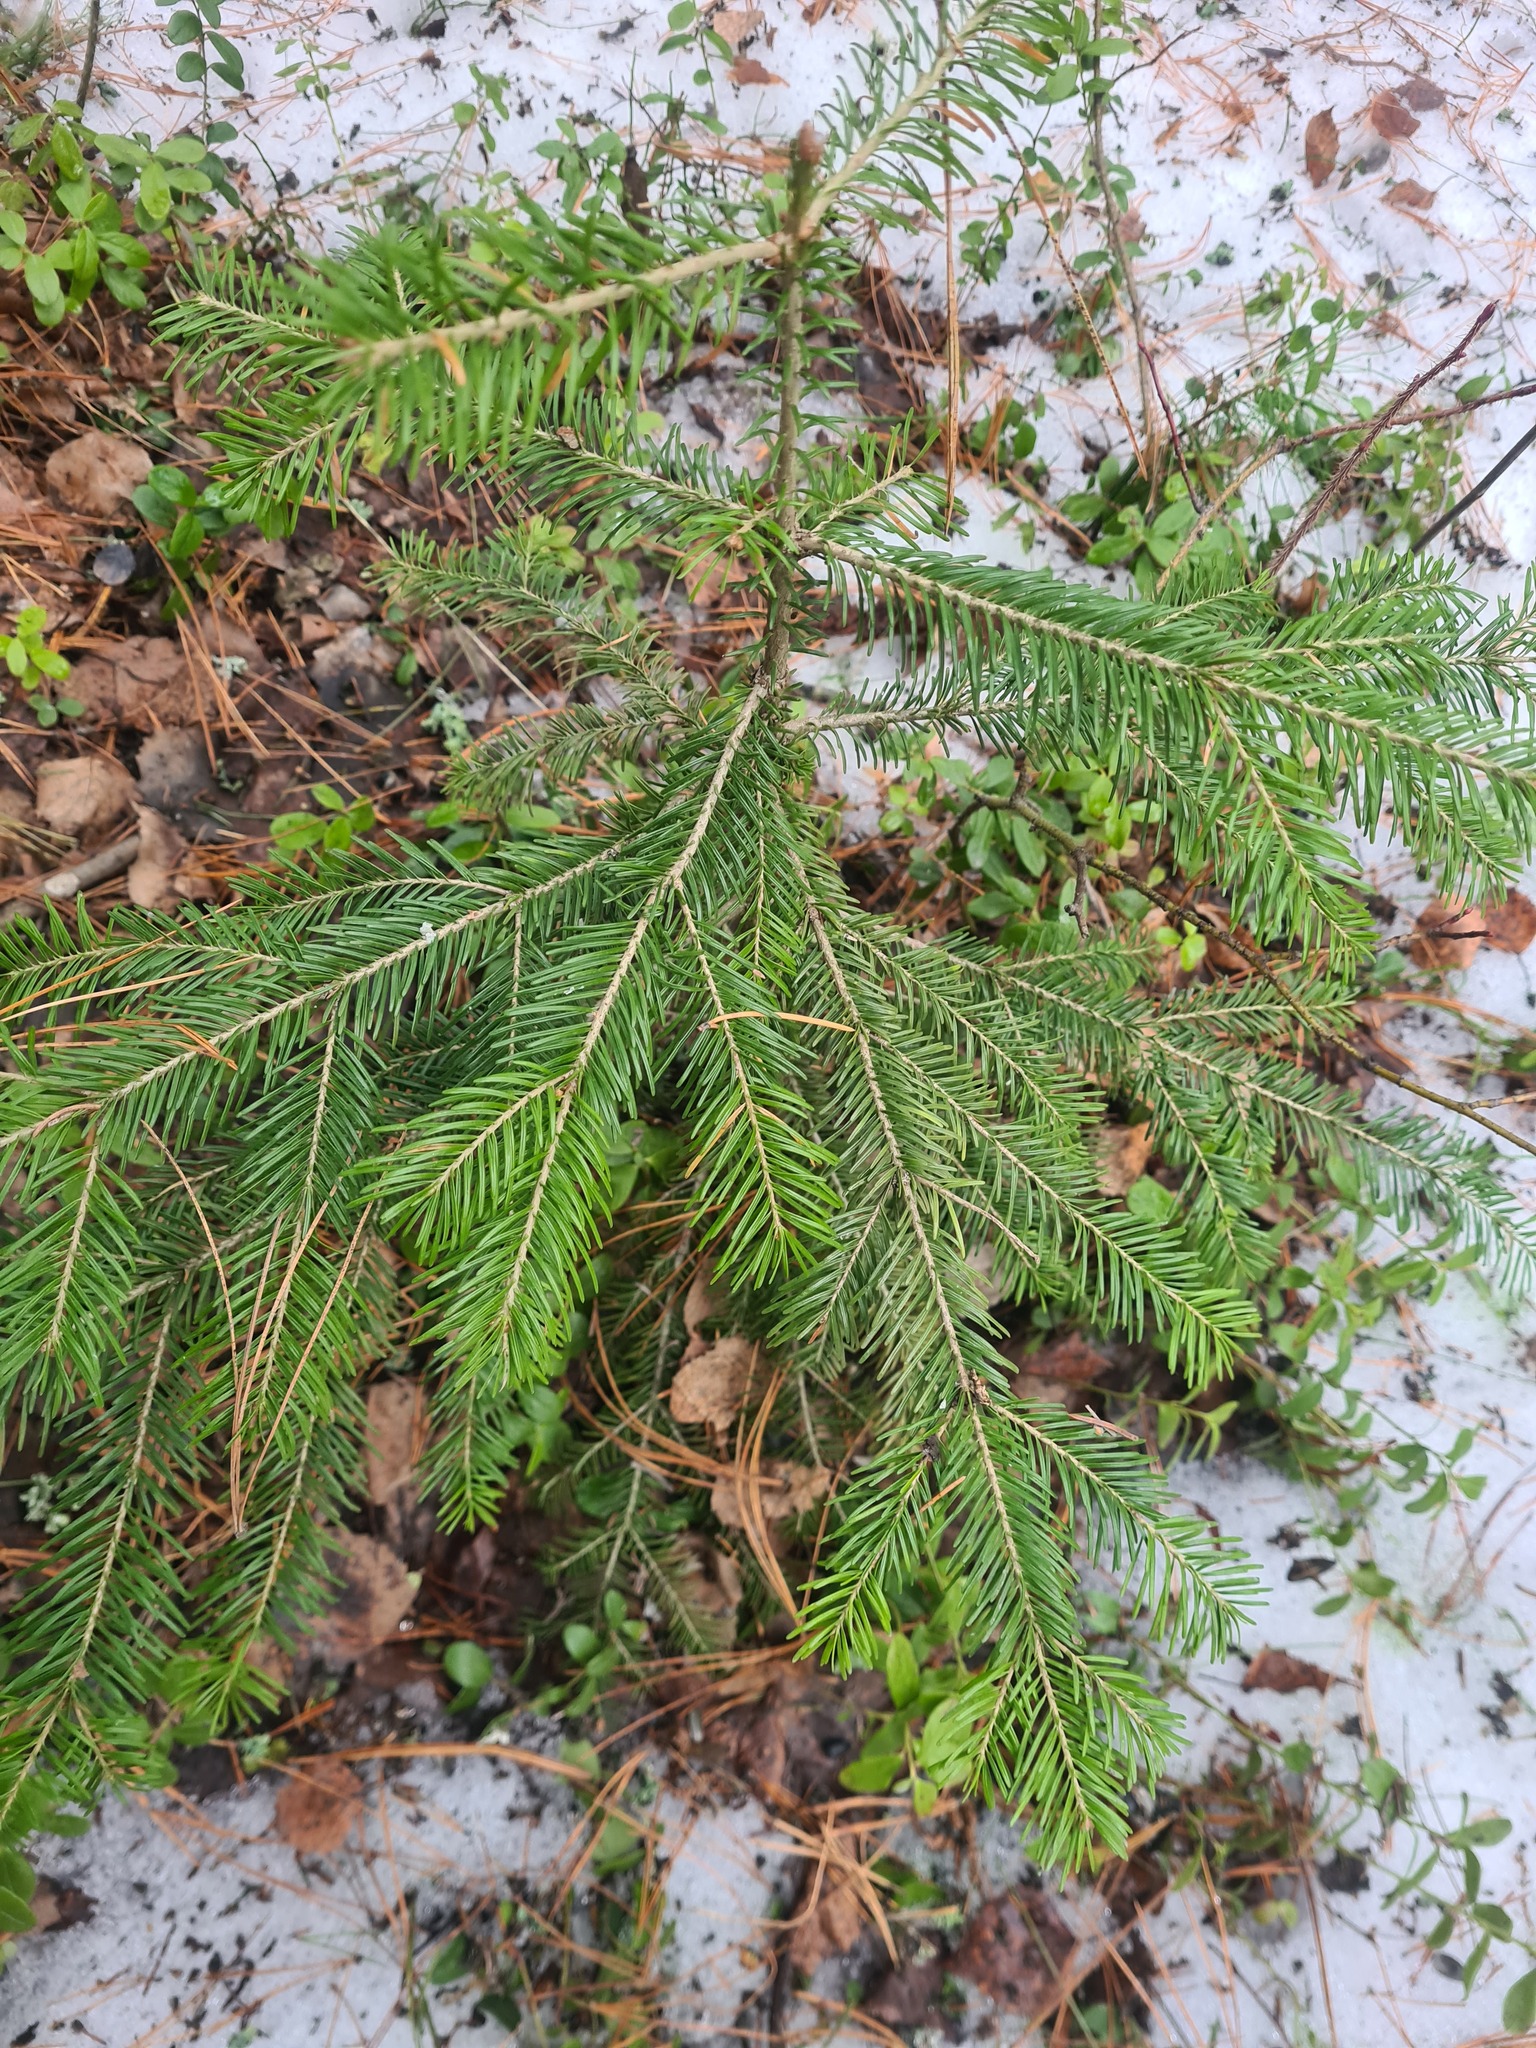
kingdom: Plantae
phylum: Tracheophyta
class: Pinopsida
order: Pinales
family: Pinaceae
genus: Abies
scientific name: Abies sibirica
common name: Siberian fir
